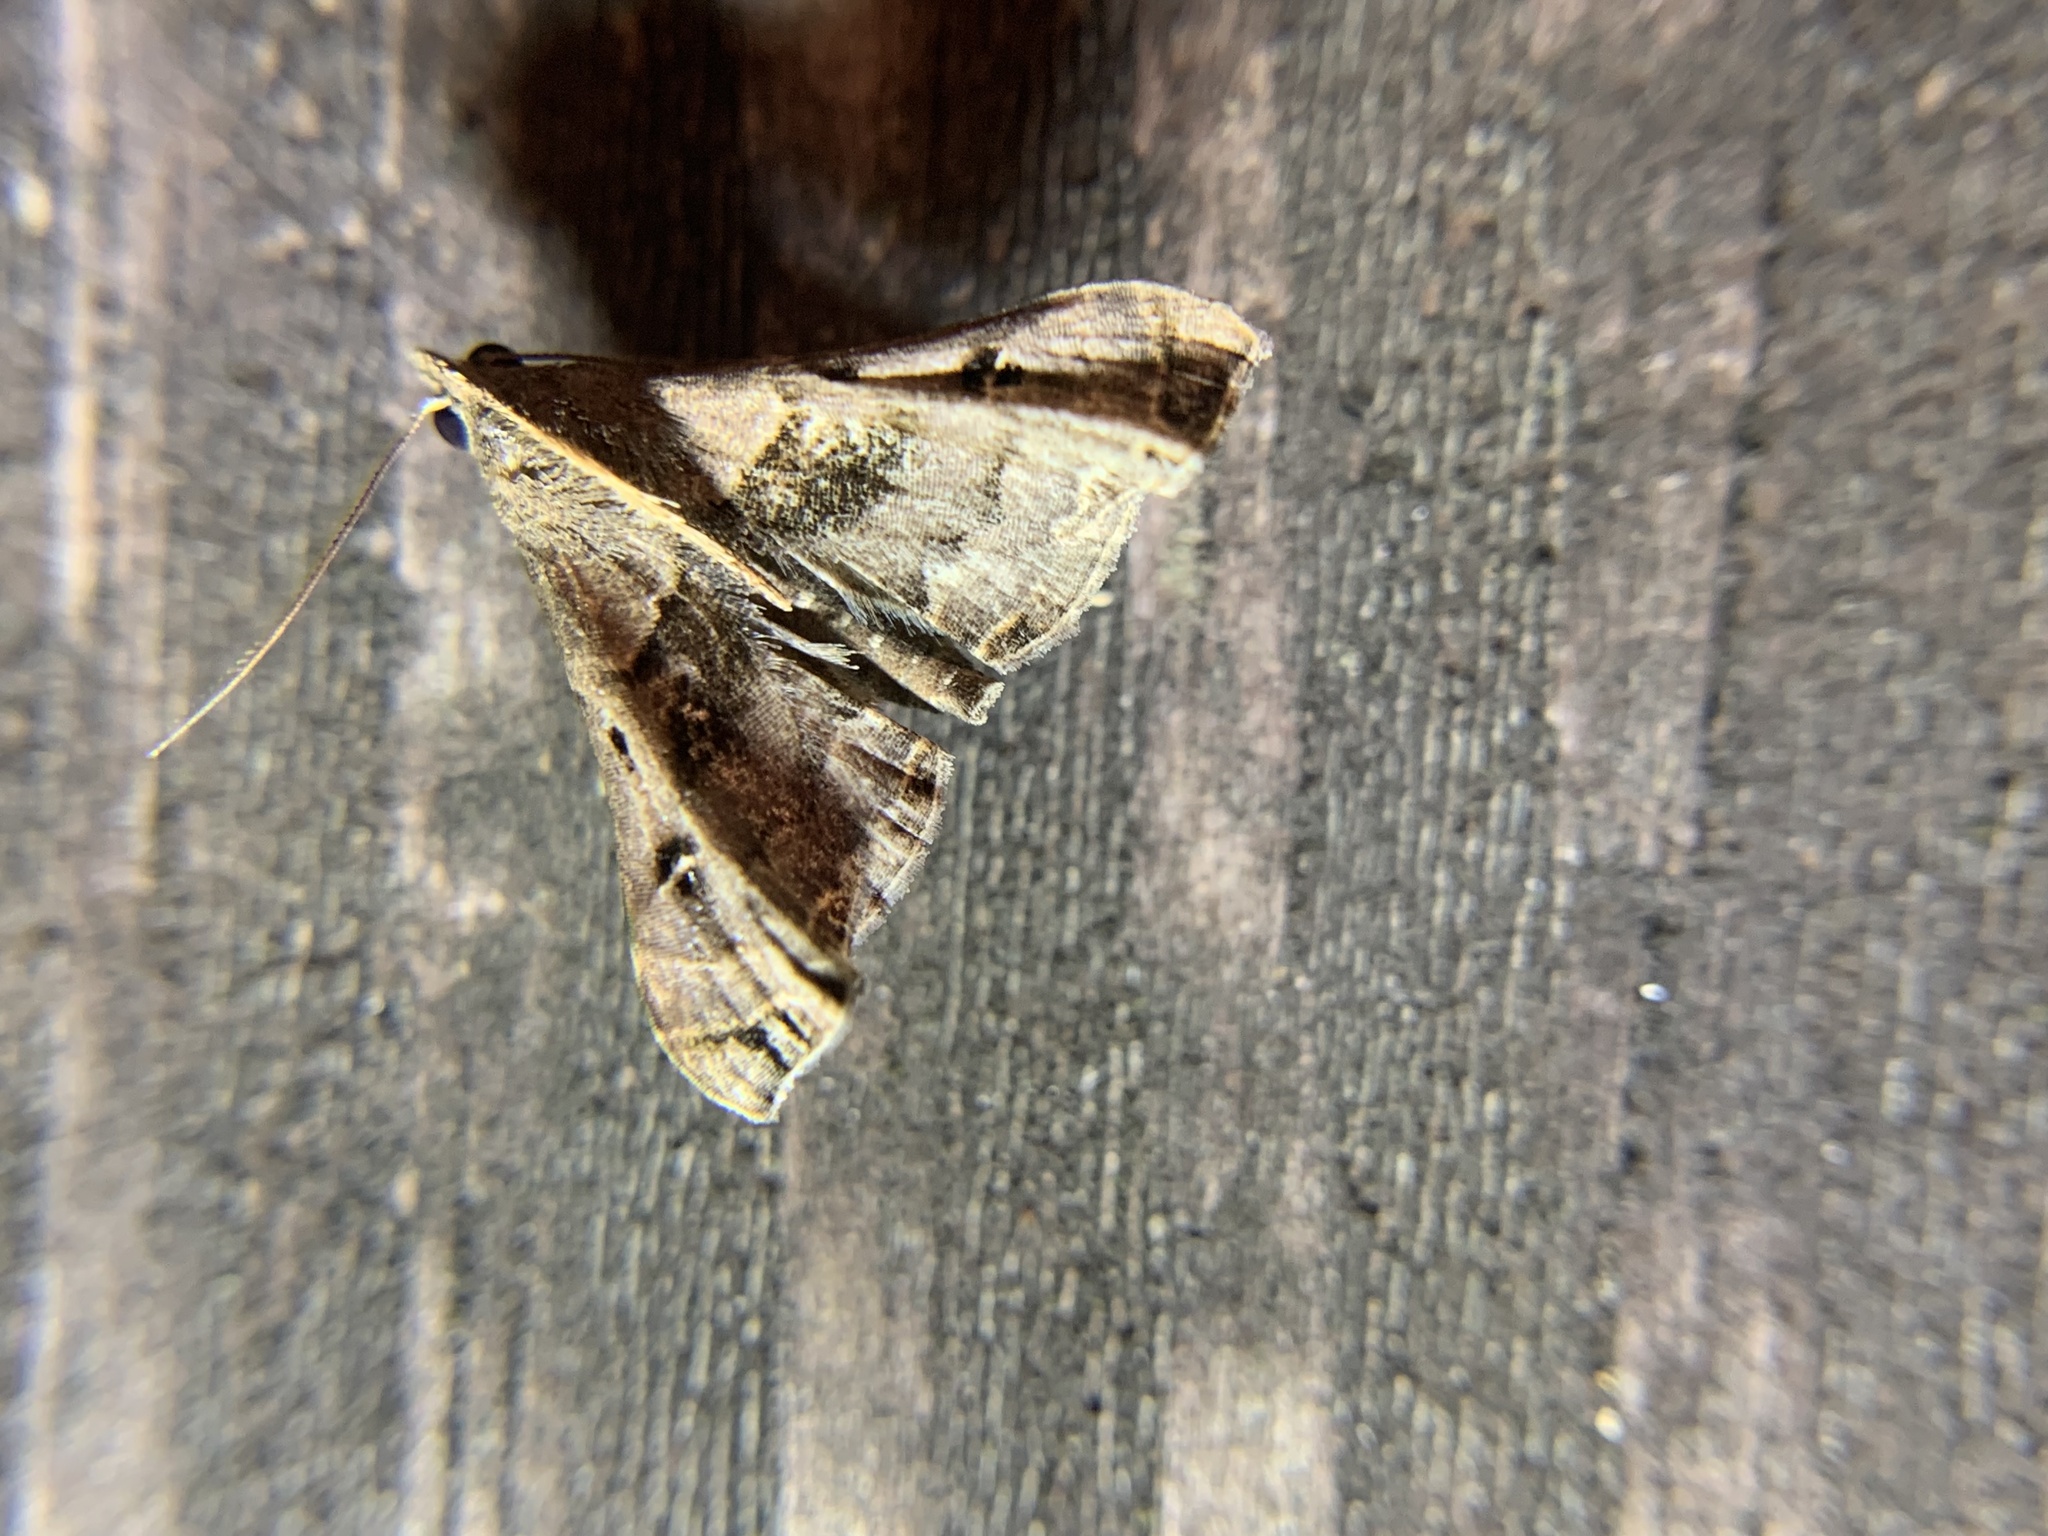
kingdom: Animalia
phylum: Arthropoda
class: Insecta
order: Lepidoptera
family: Erebidae
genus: Palthis
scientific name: Palthis asopialis
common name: Faint-spotted palthis moth
